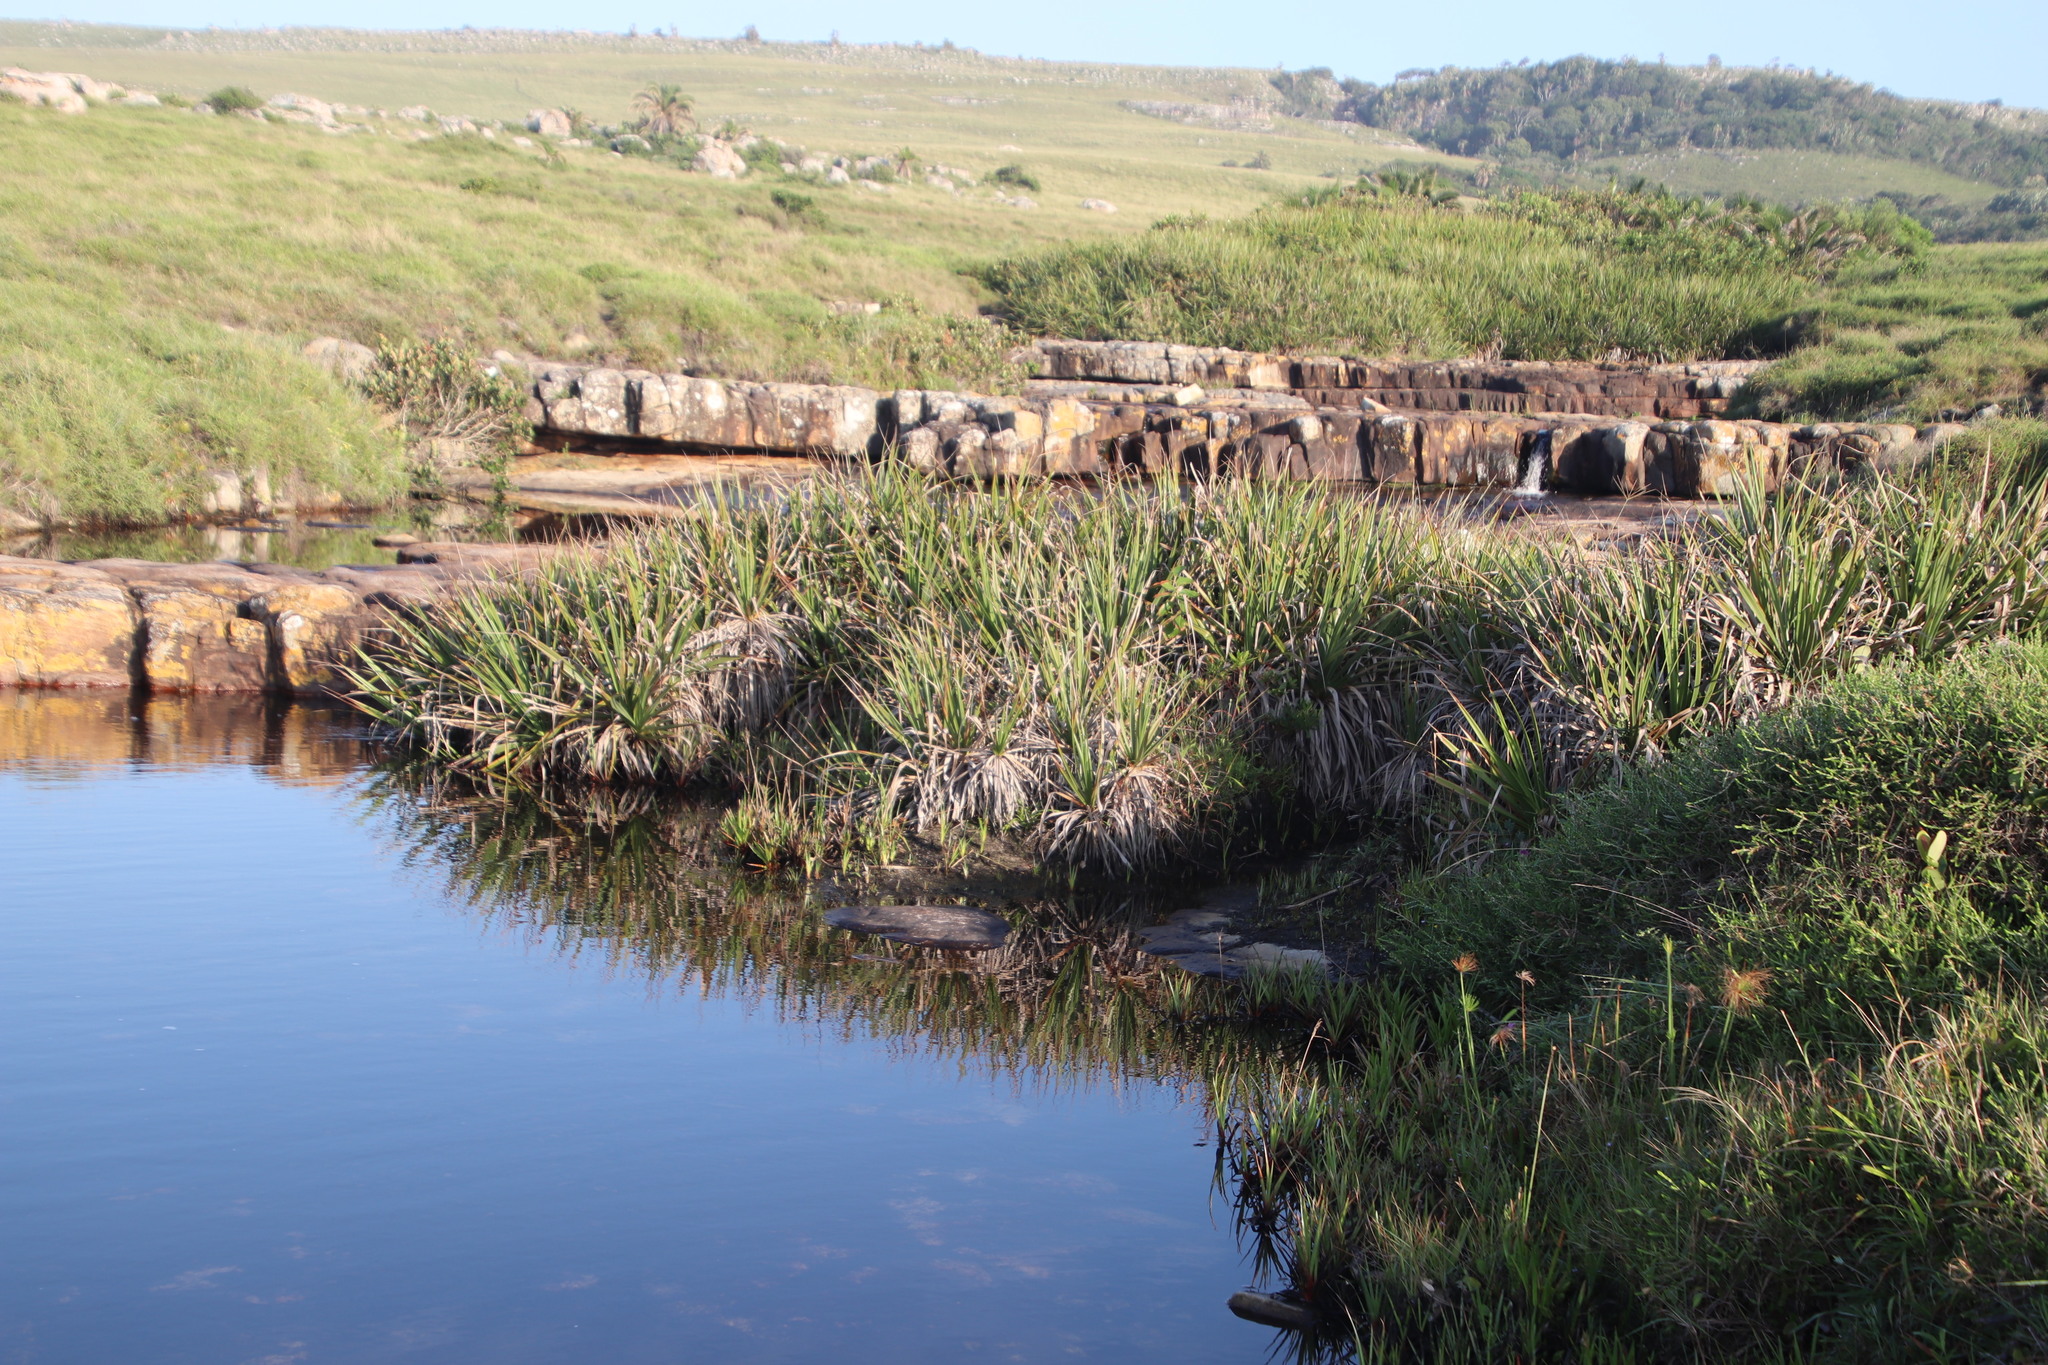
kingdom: Plantae
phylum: Tracheophyta
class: Liliopsida
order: Poales
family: Thurniaceae
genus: Prionium
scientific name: Prionium serratum
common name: Palmiet
